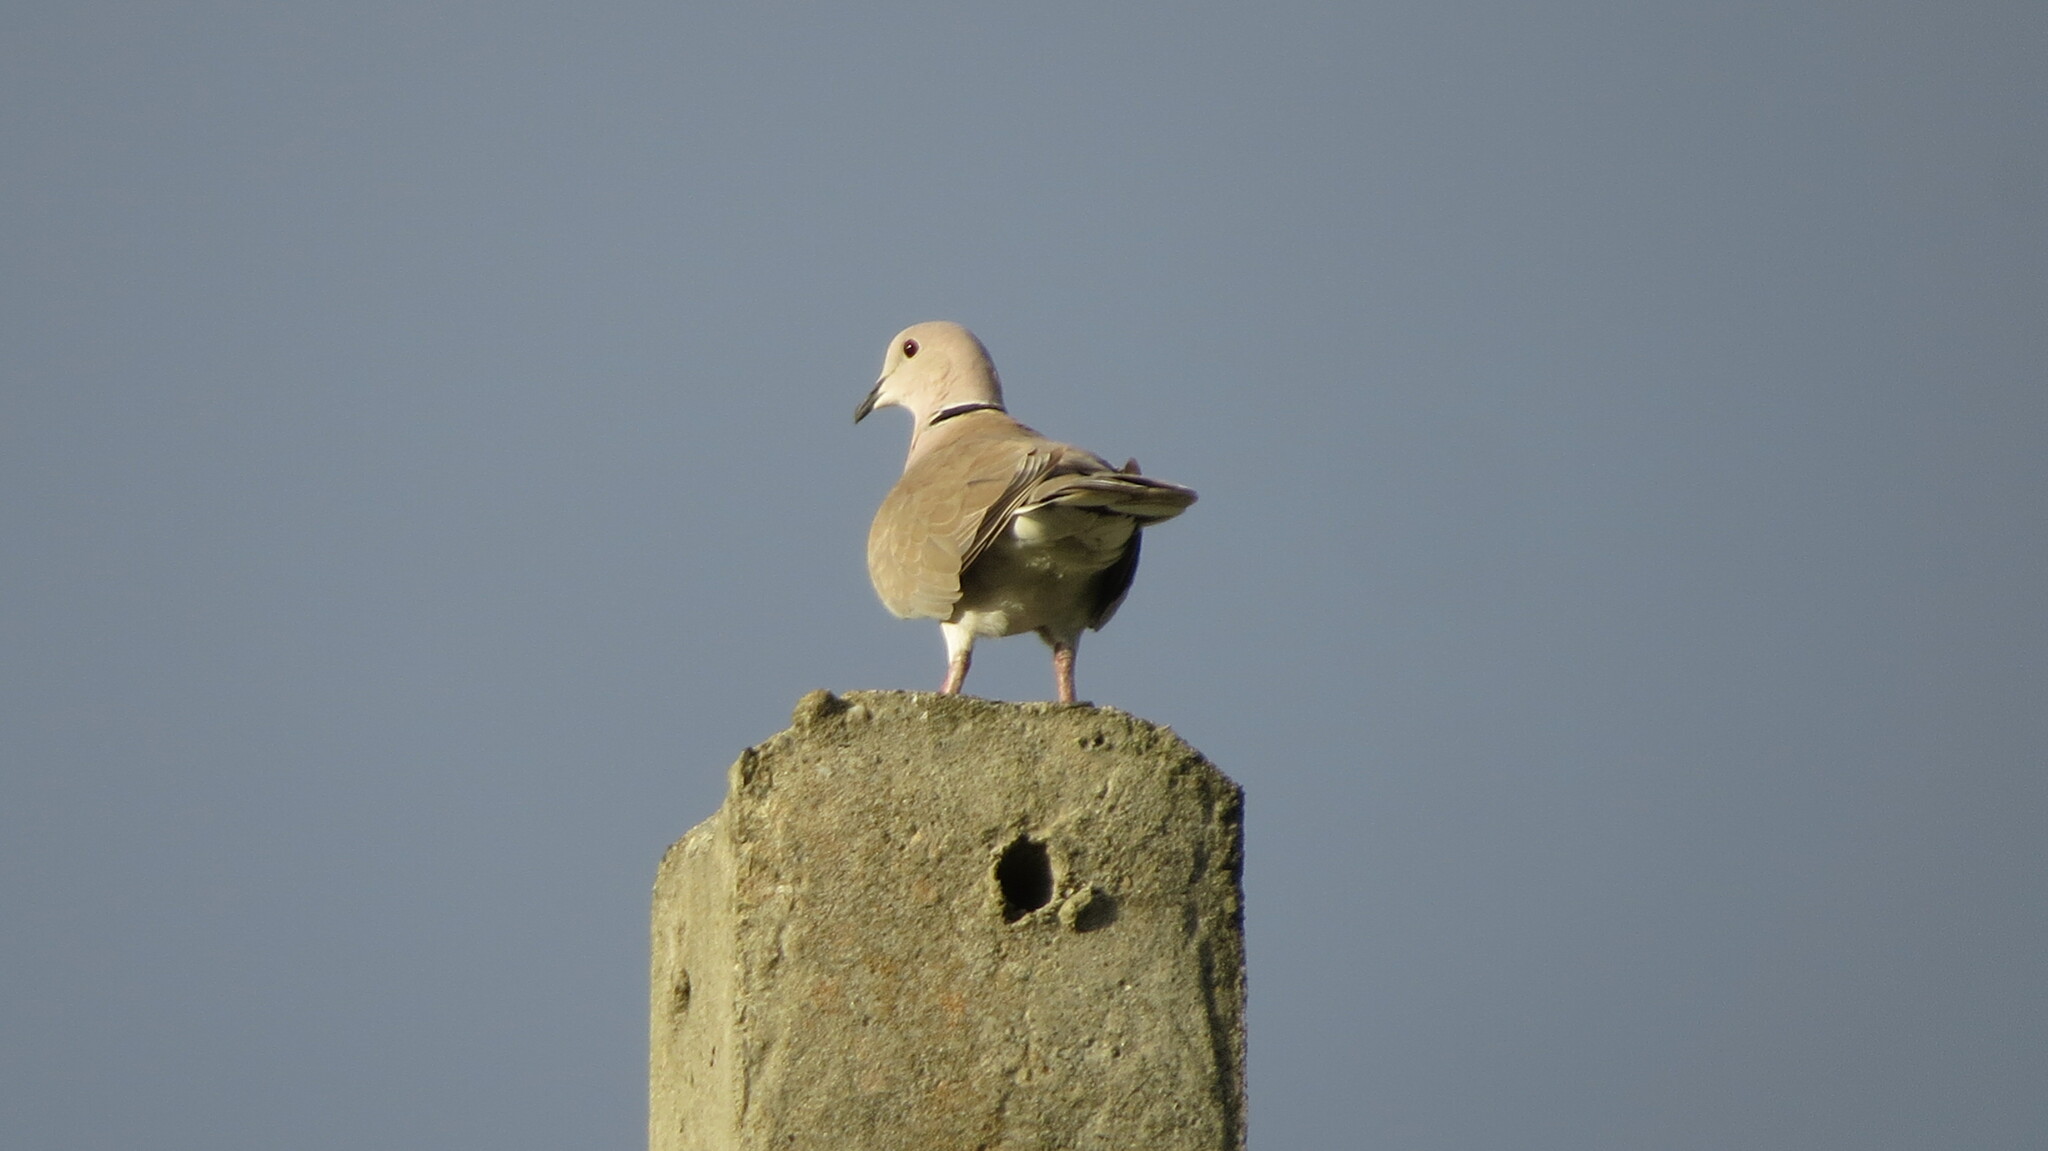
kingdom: Animalia
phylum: Chordata
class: Aves
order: Columbiformes
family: Columbidae
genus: Streptopelia
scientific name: Streptopelia decaocto
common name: Eurasian collared dove
